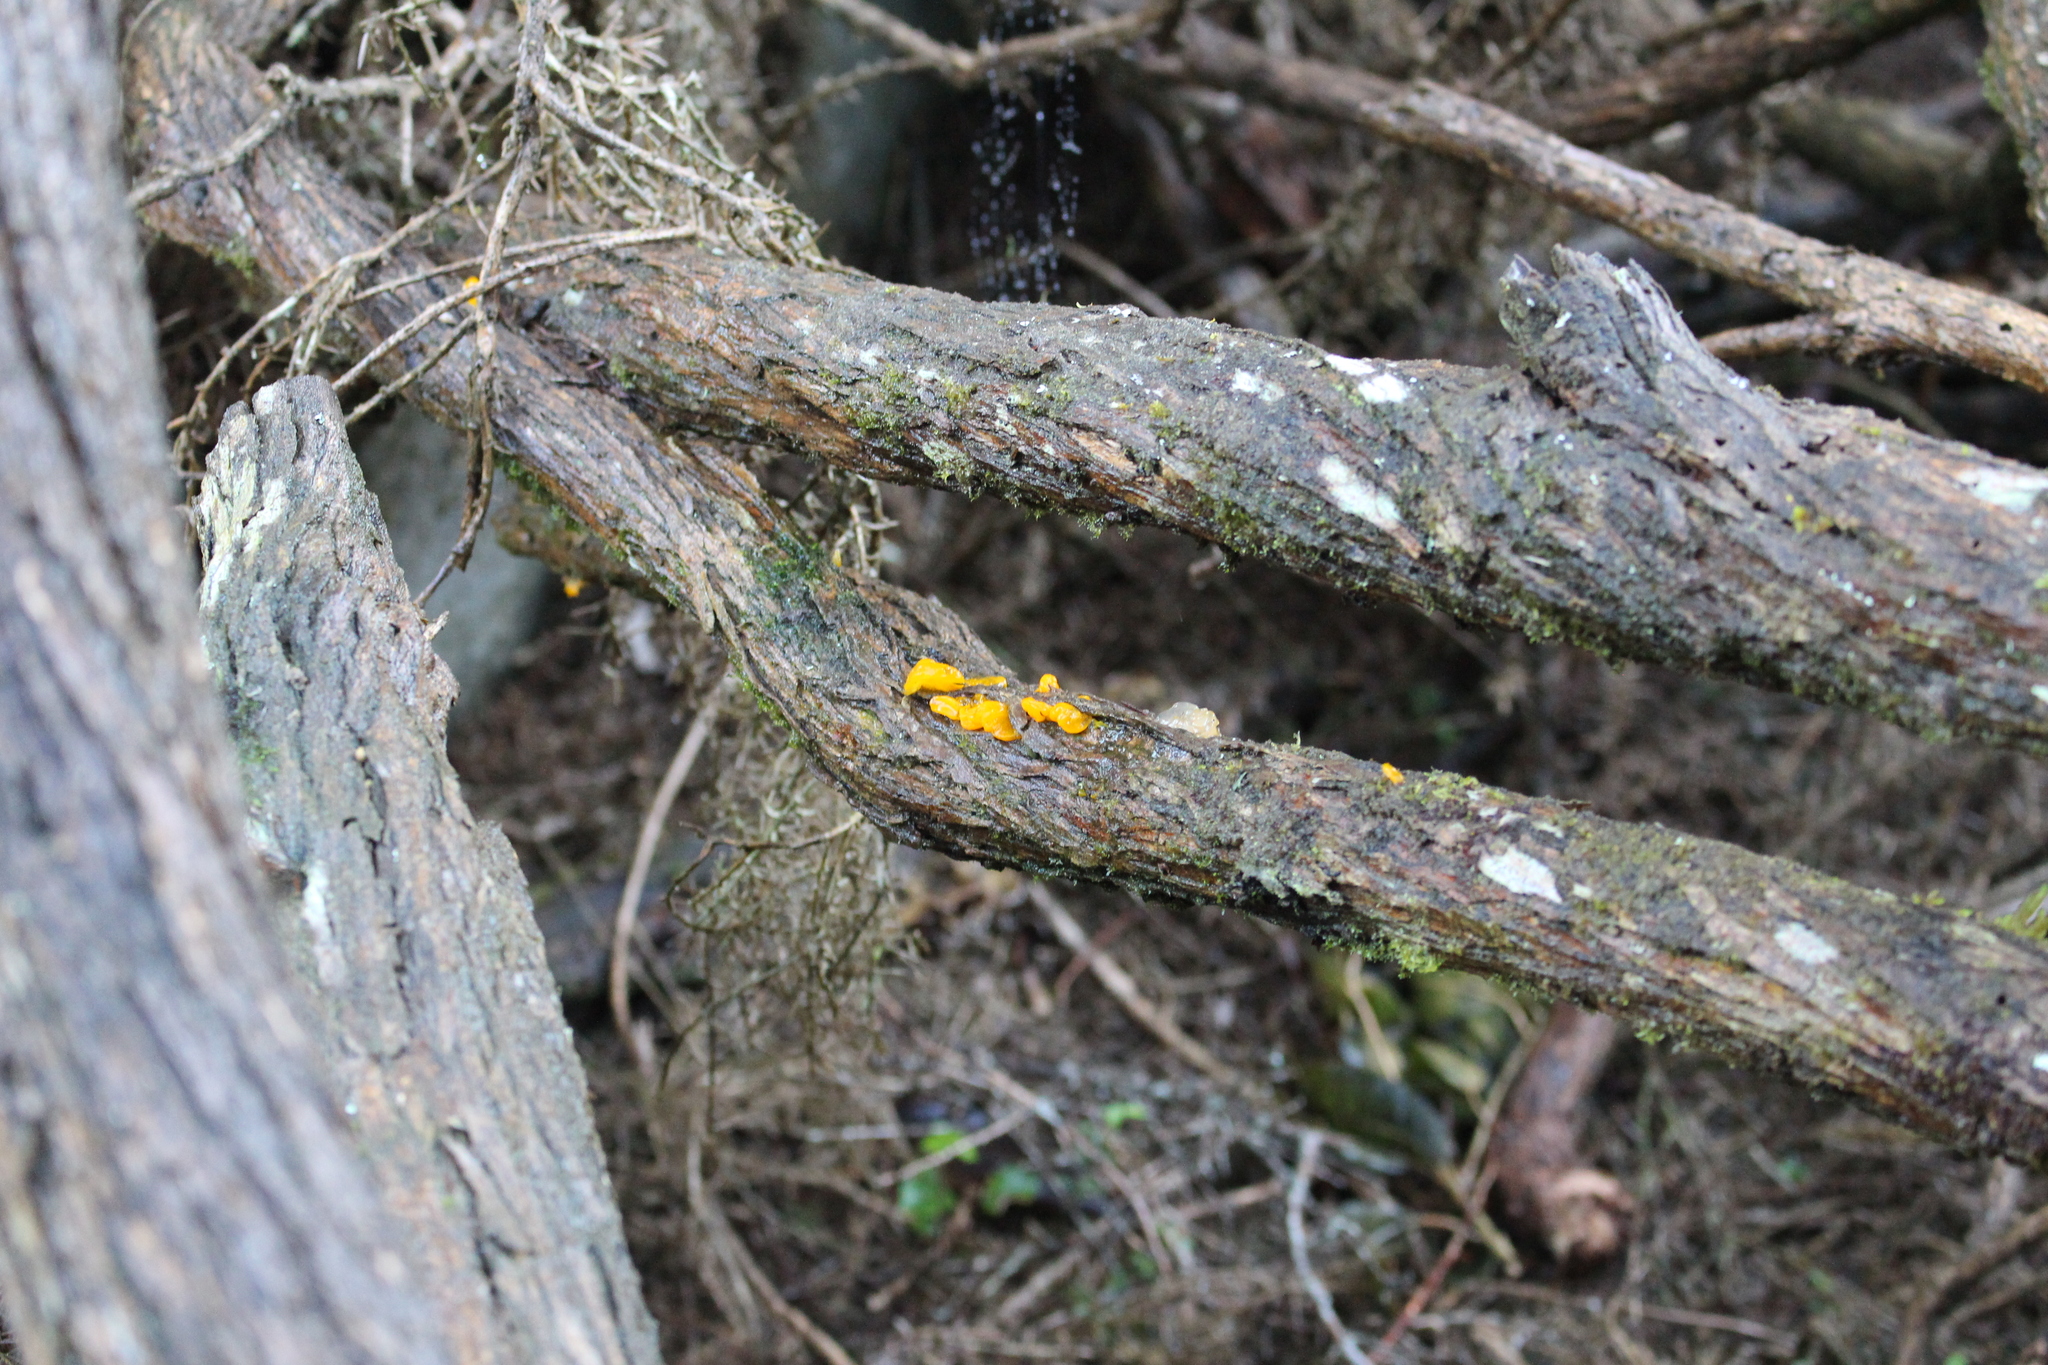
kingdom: Fungi
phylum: Basidiomycota
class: Tremellomycetes
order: Tremellales
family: Tremellaceae
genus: Tremella
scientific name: Tremella mesenterica
